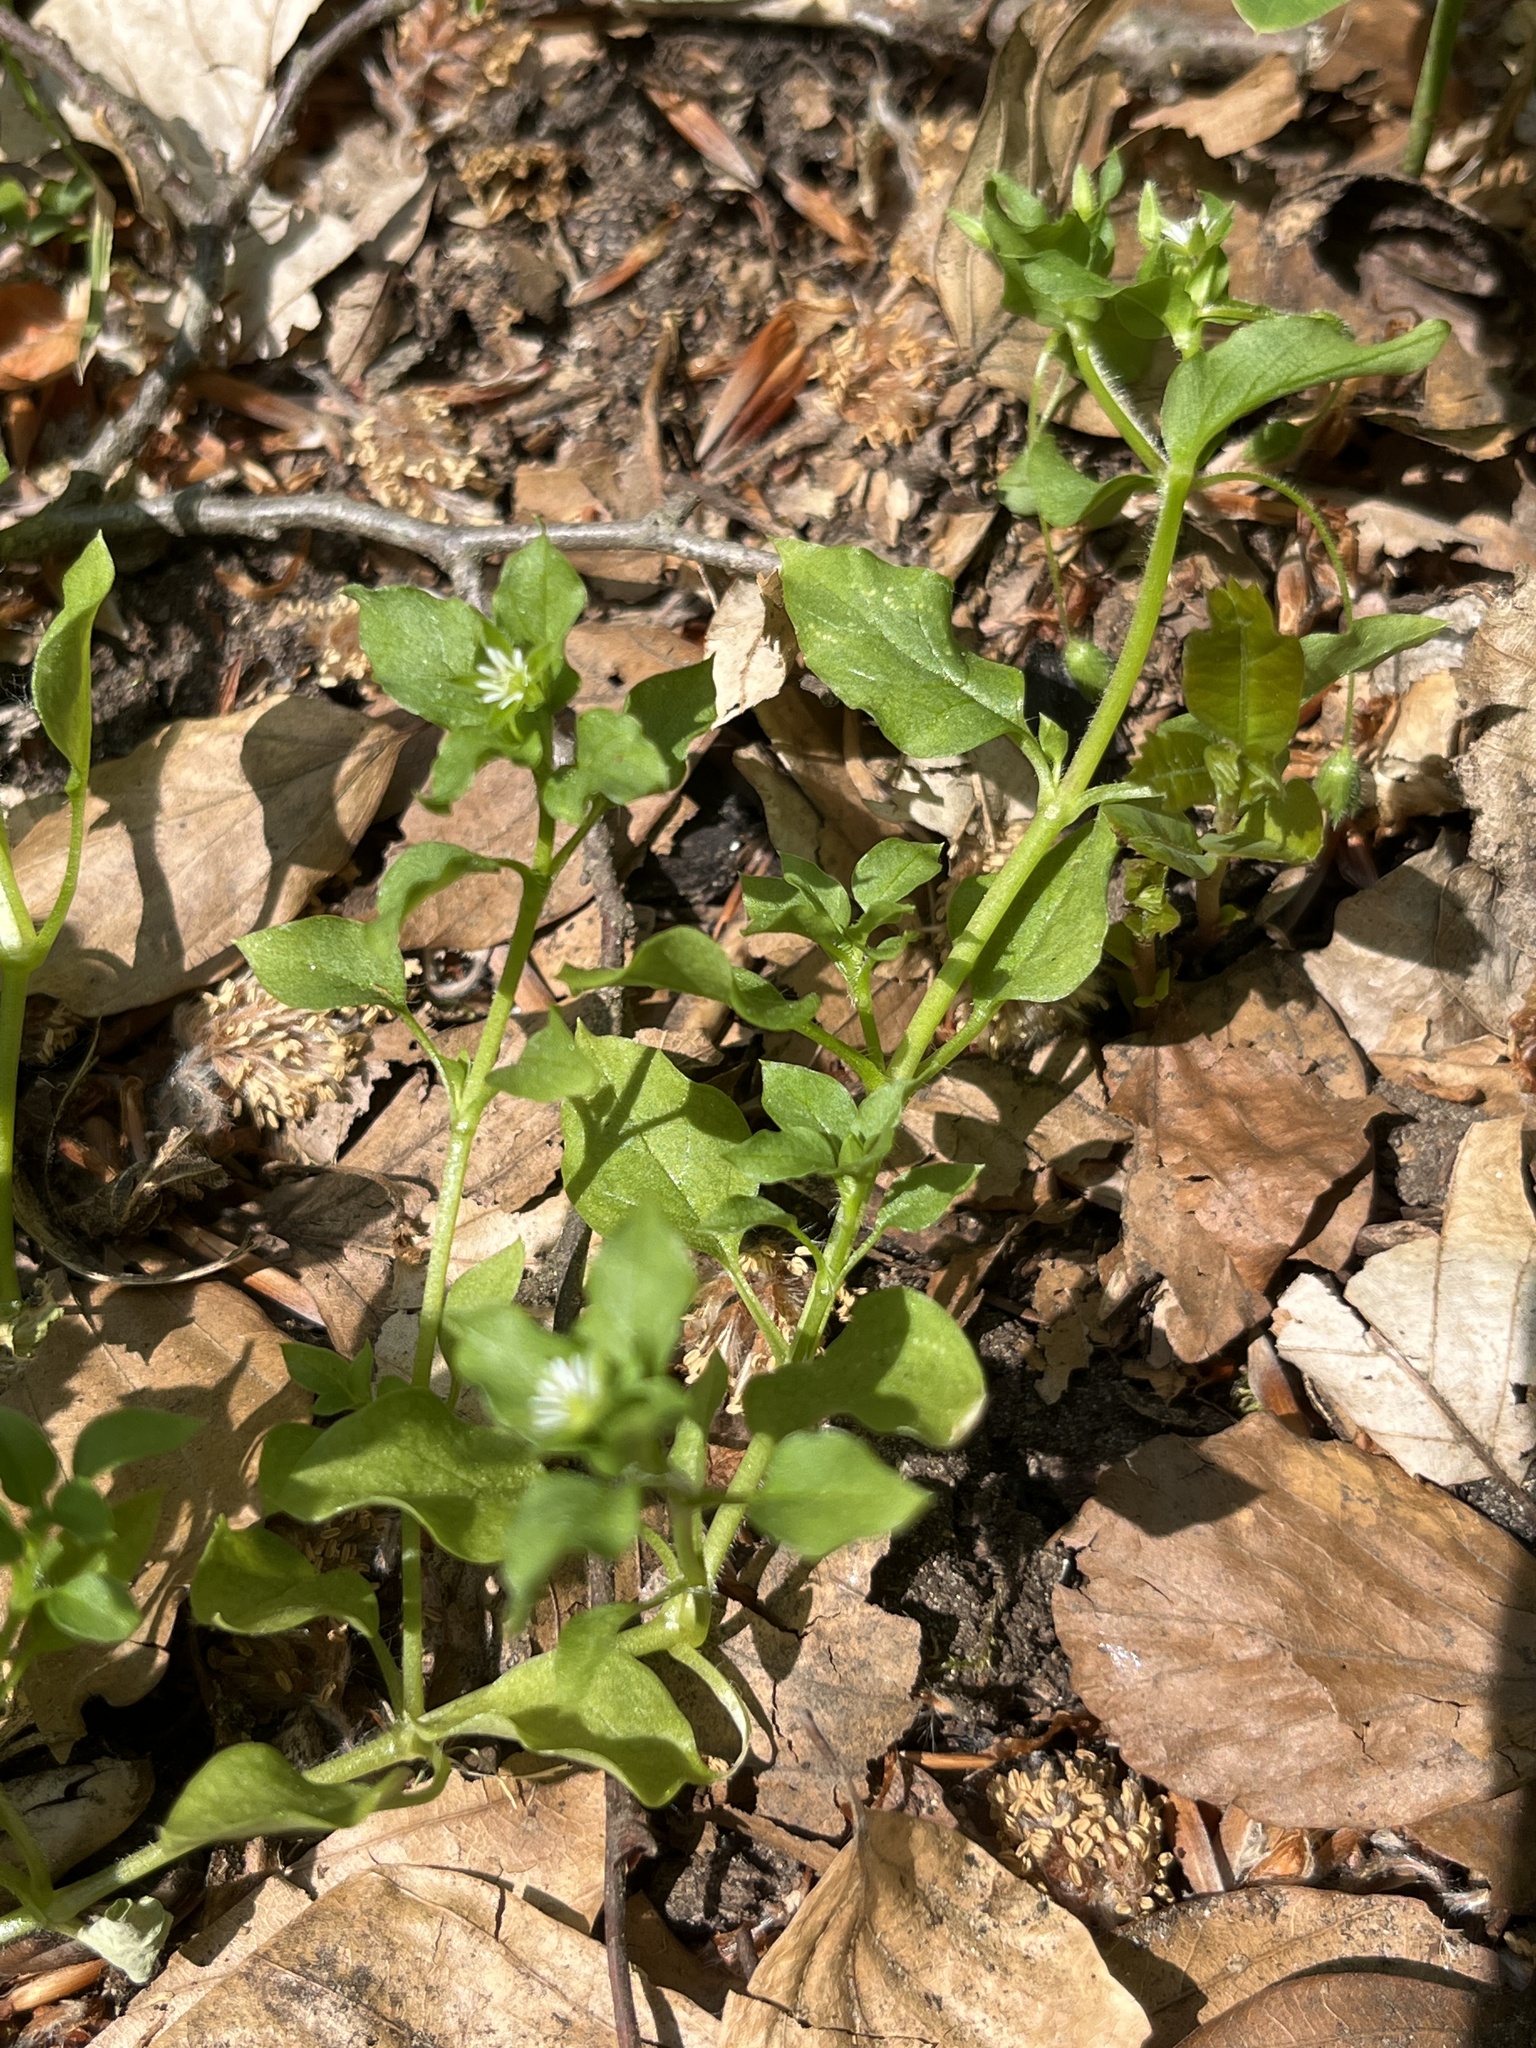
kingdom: Plantae
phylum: Tracheophyta
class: Magnoliopsida
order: Caryophyllales
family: Caryophyllaceae
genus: Stellaria
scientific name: Stellaria media
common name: Common chickweed
